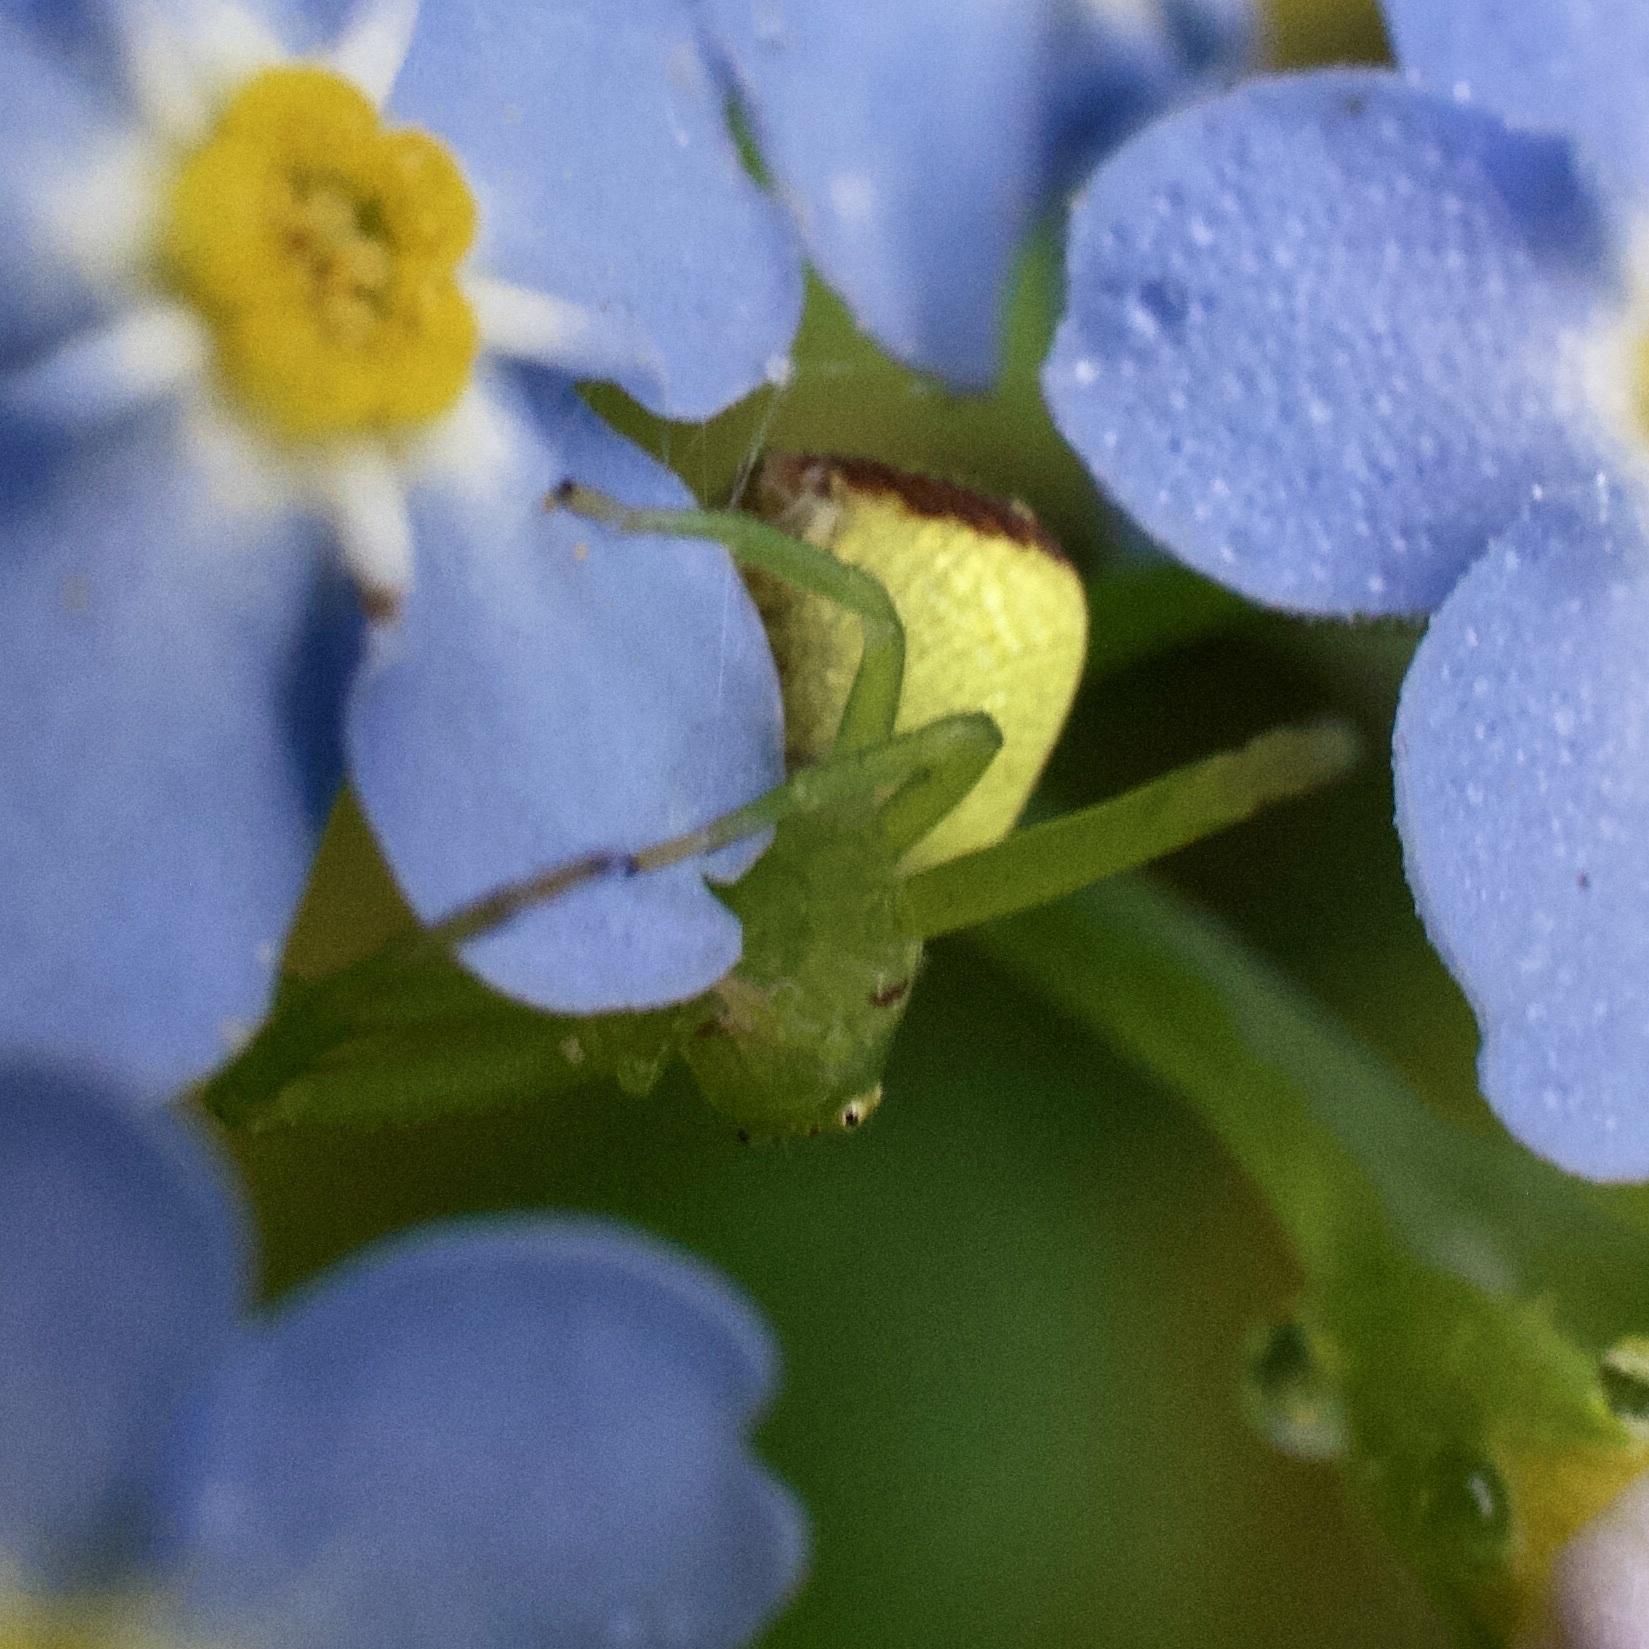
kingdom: Animalia
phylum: Arthropoda
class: Arachnida
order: Araneae
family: Thomisidae
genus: Ebrechtella
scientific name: Ebrechtella tricuspidata
